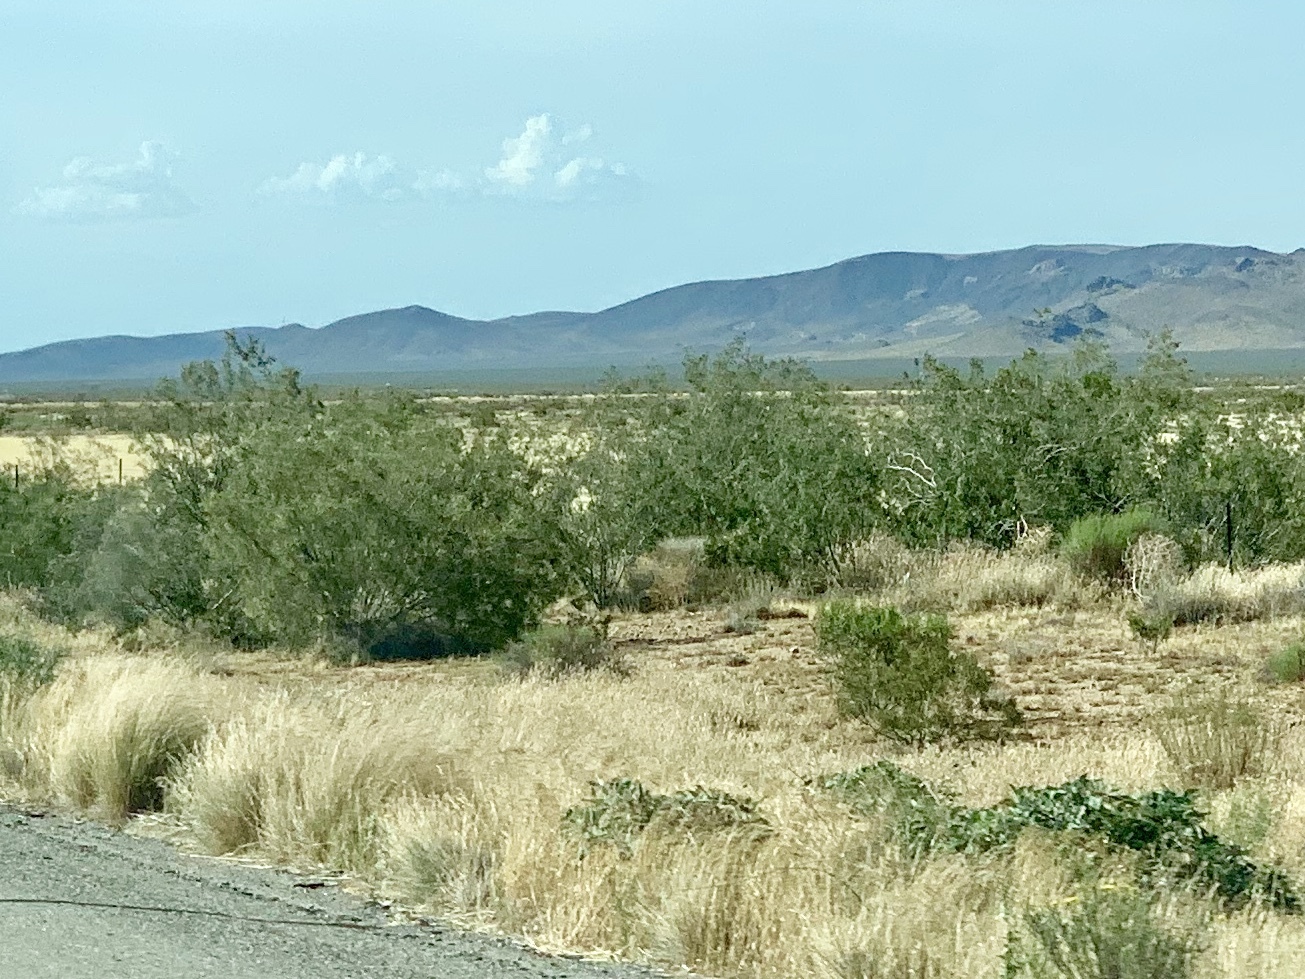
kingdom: Plantae
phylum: Tracheophyta
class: Magnoliopsida
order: Zygophyllales
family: Zygophyllaceae
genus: Larrea
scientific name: Larrea tridentata
